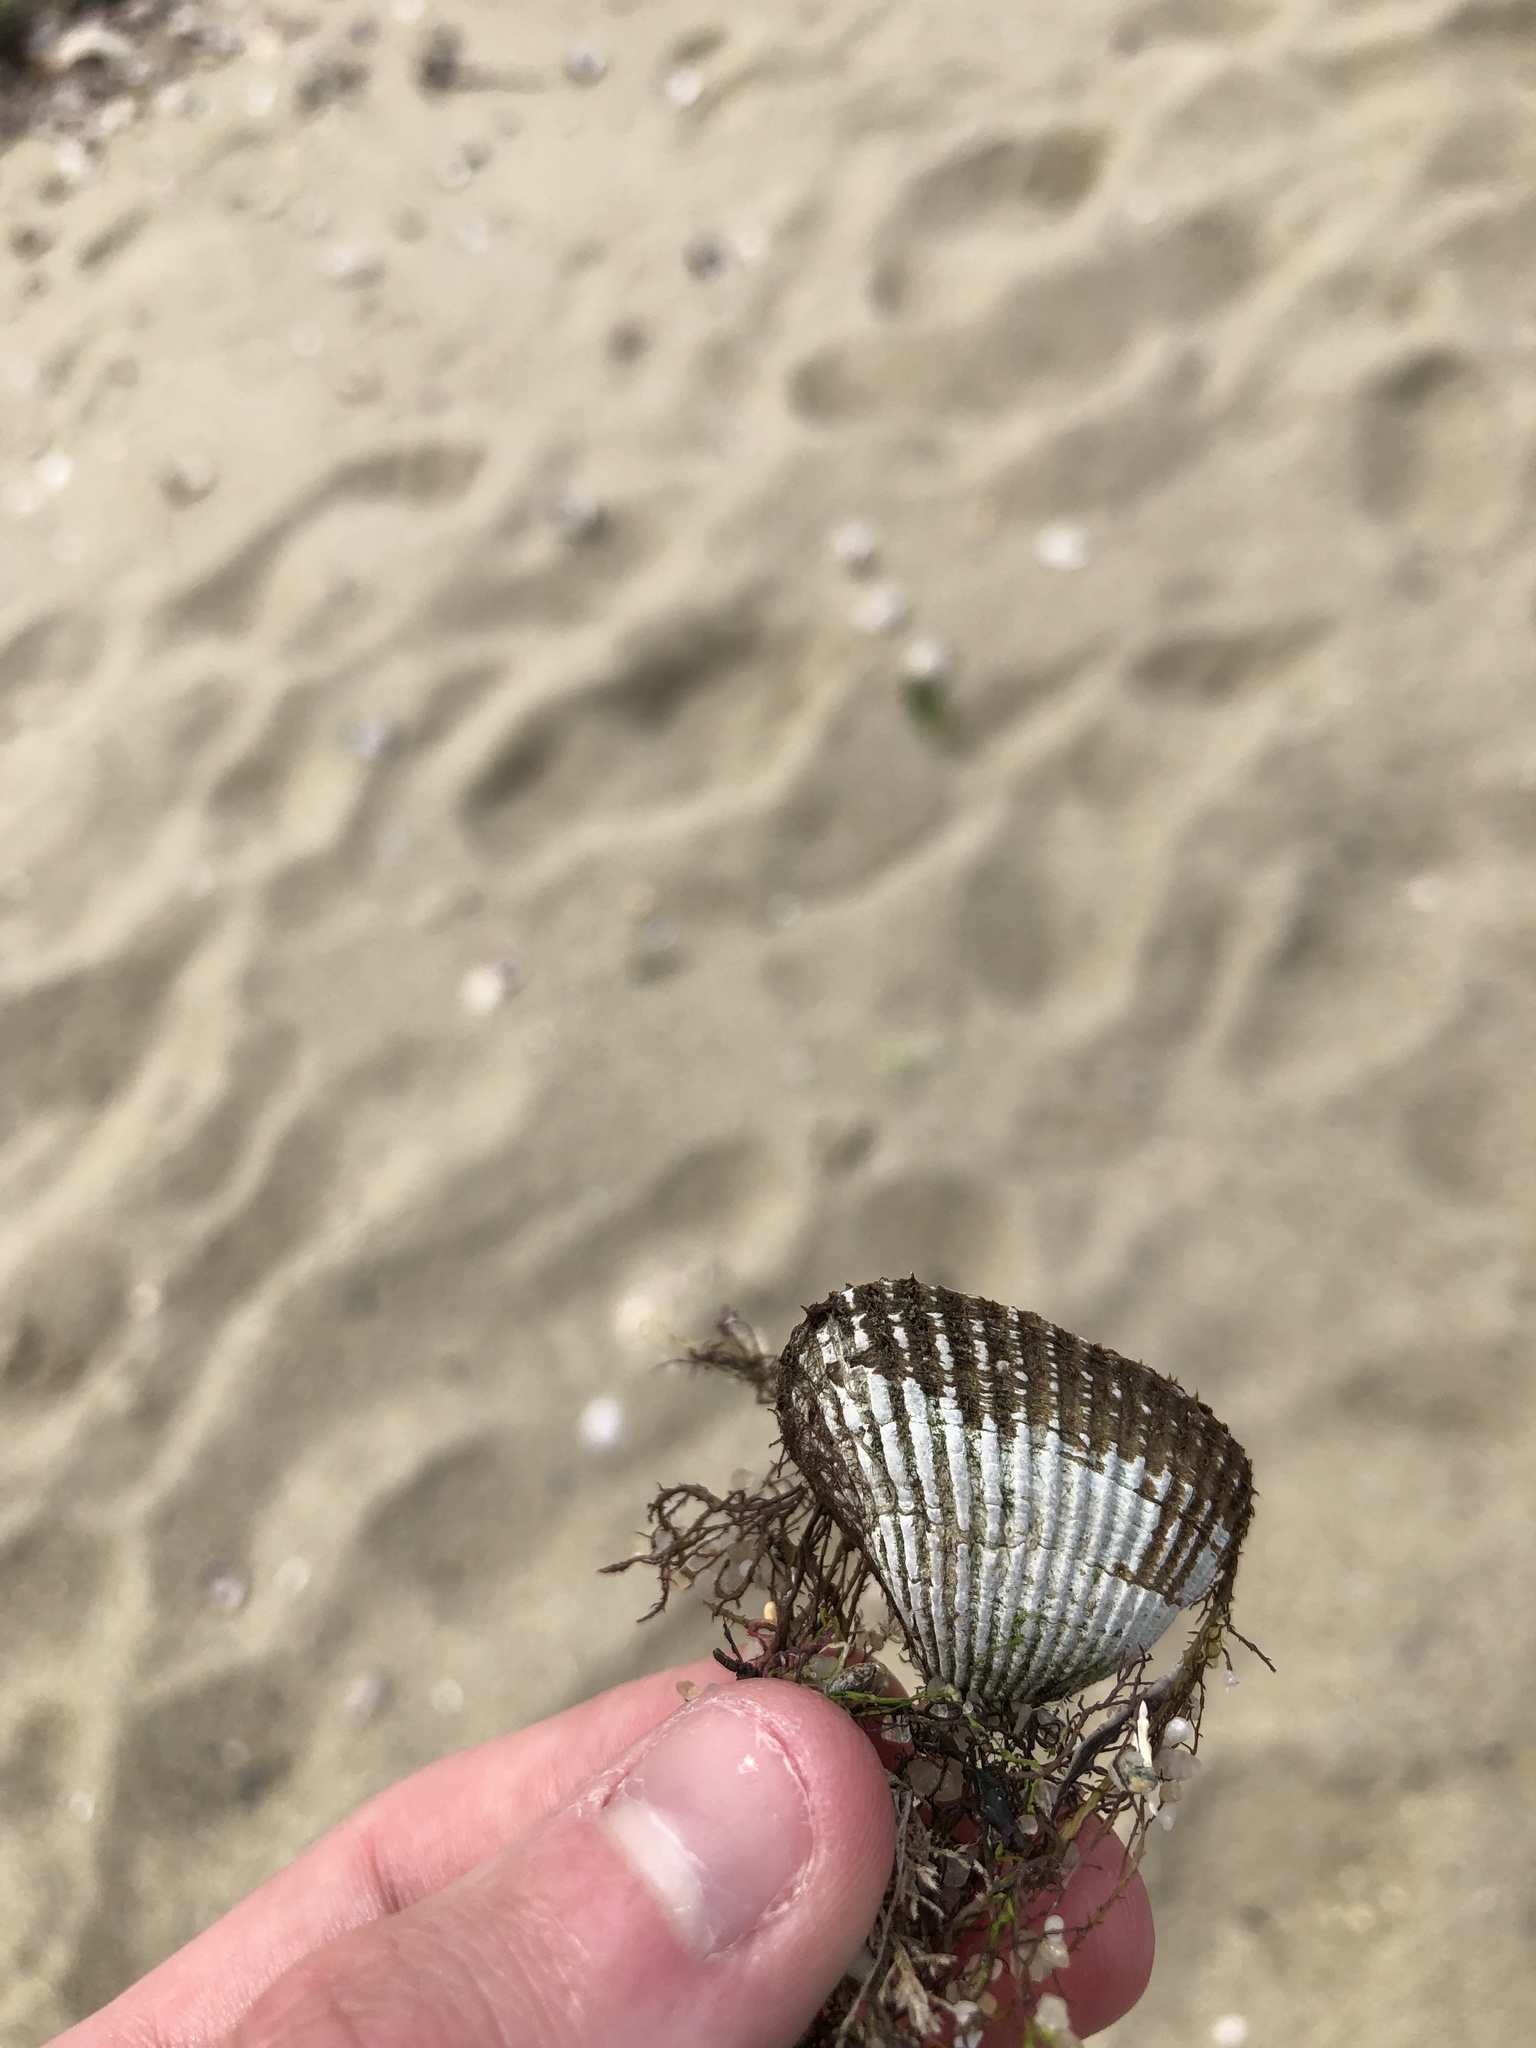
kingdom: Animalia
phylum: Mollusca
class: Bivalvia
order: Arcida
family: Arcidae
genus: Anadara
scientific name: Anadara transversa
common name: Transverse ark
